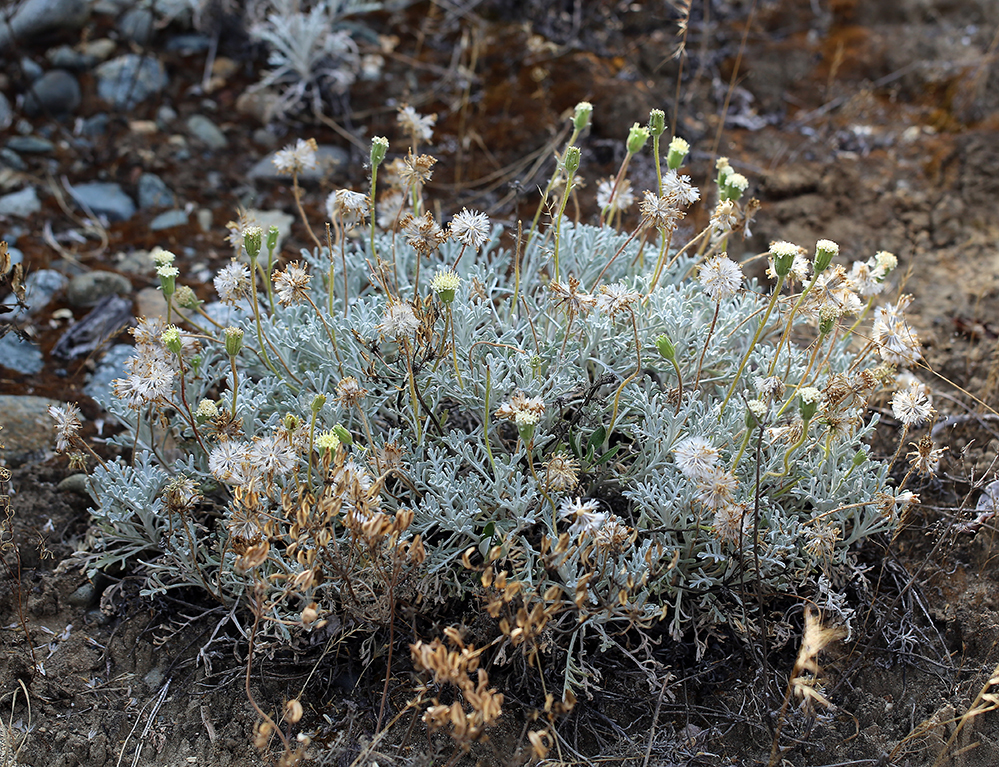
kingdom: Plantae
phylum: Tracheophyta
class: Magnoliopsida
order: Asterales
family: Asteraceae
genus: Chaenactis
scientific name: Chaenactis suffrutescens
